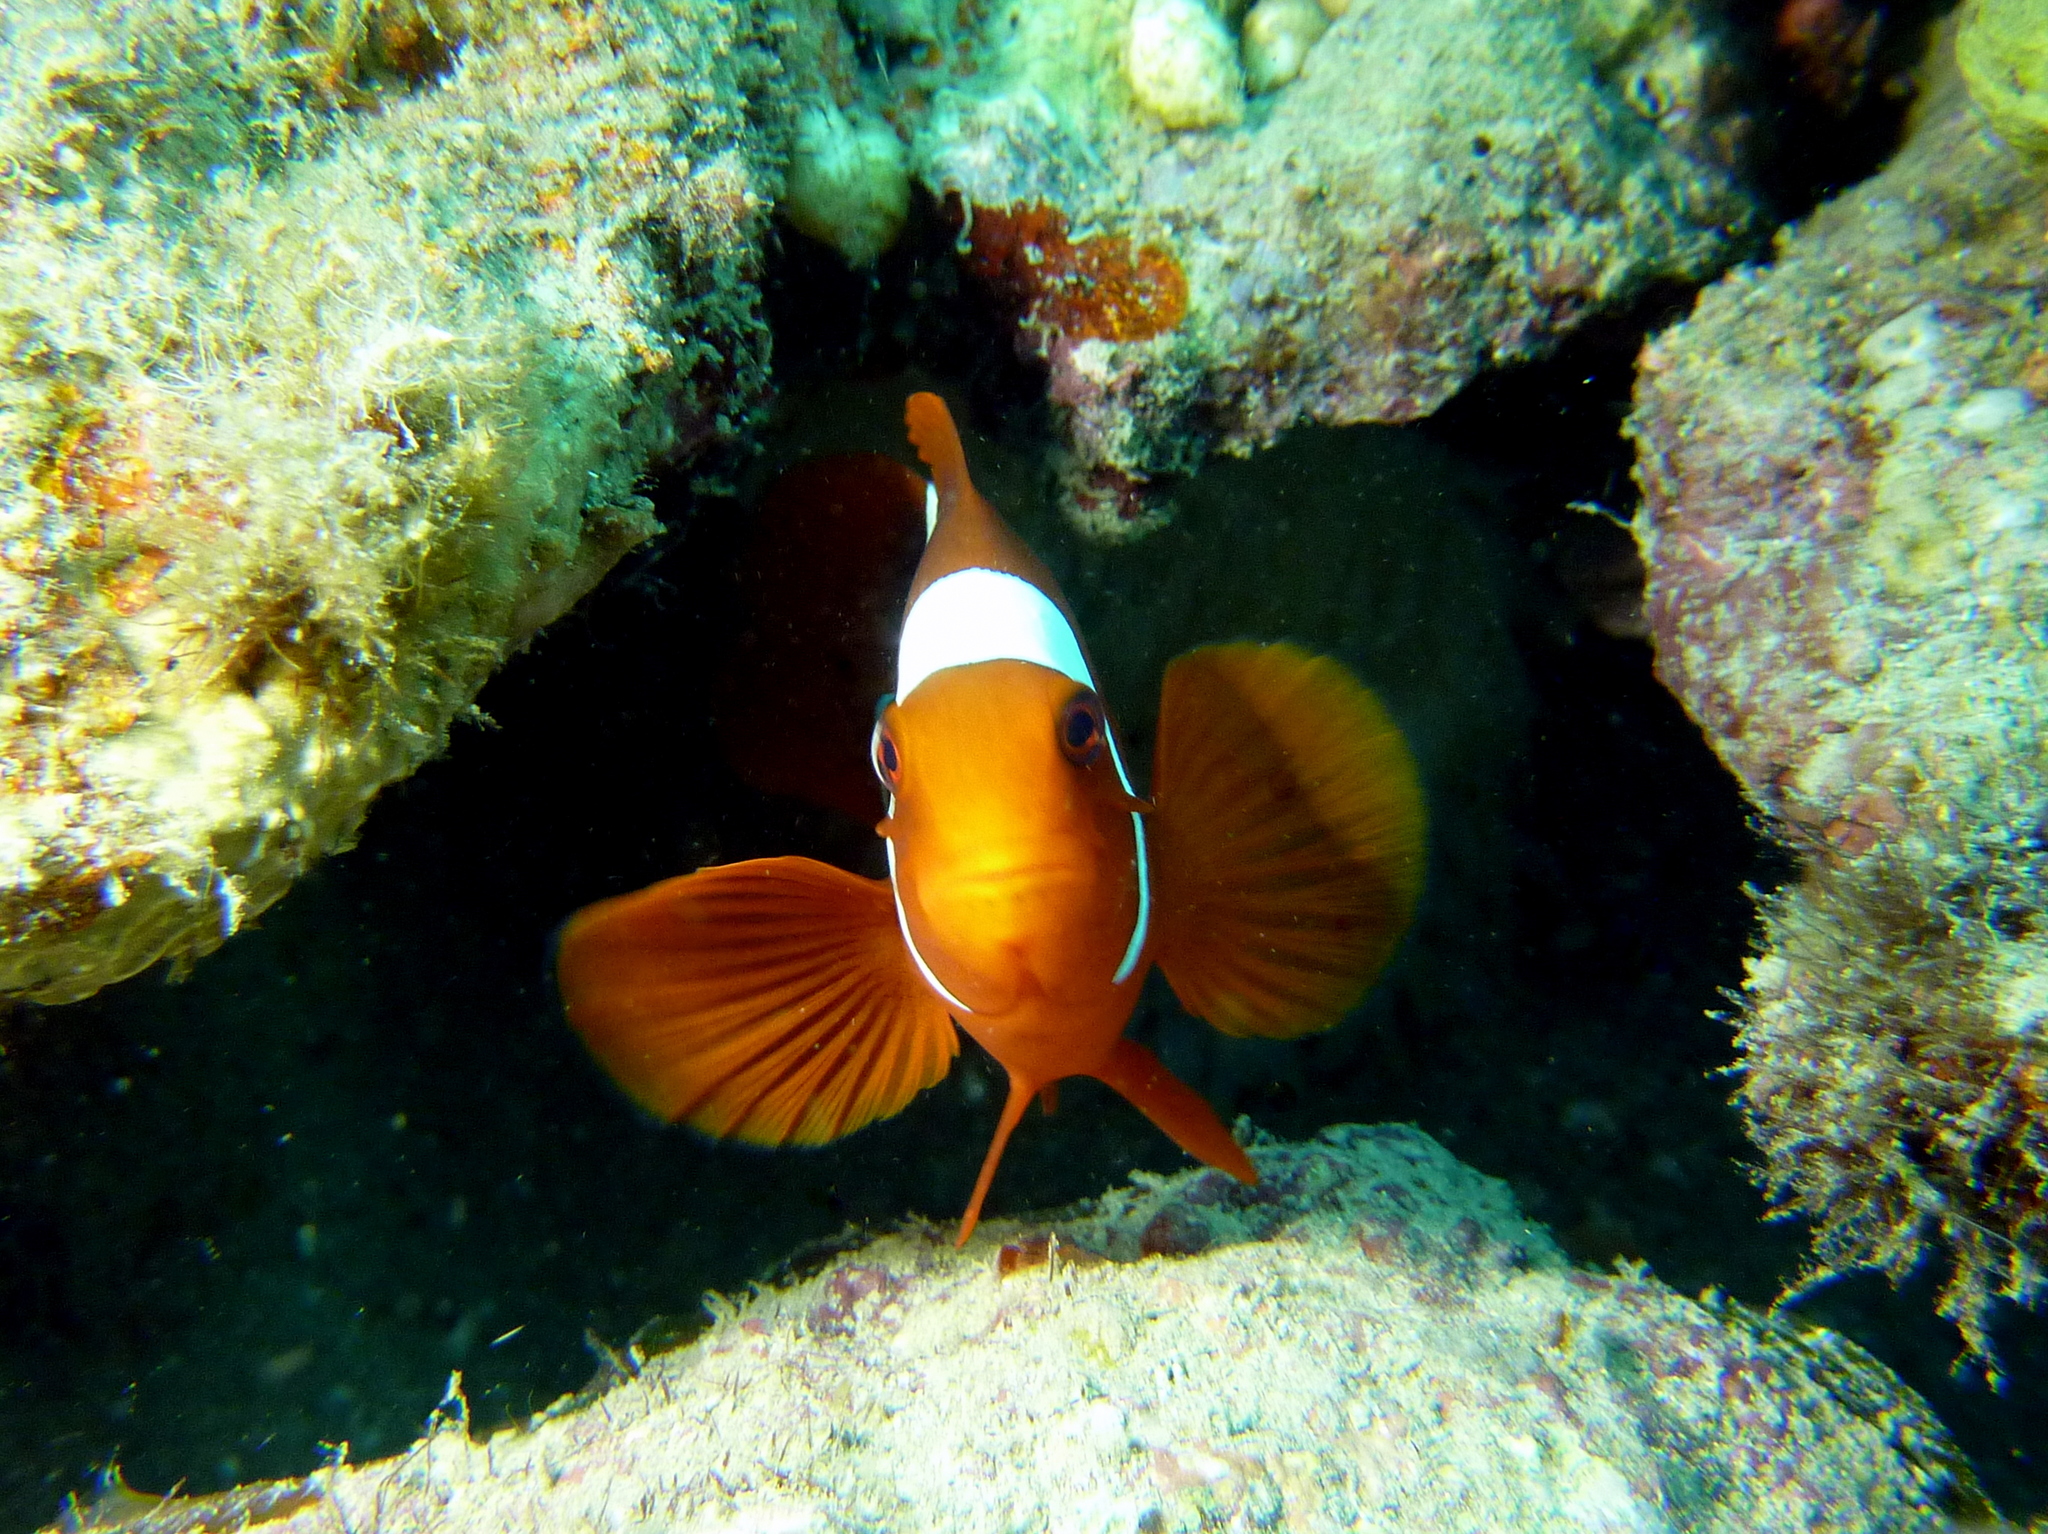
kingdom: Animalia
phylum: Chordata
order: Perciformes
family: Pomacentridae
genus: Premnas
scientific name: Premnas biaculeatus
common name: Spinecheek anemonefish
